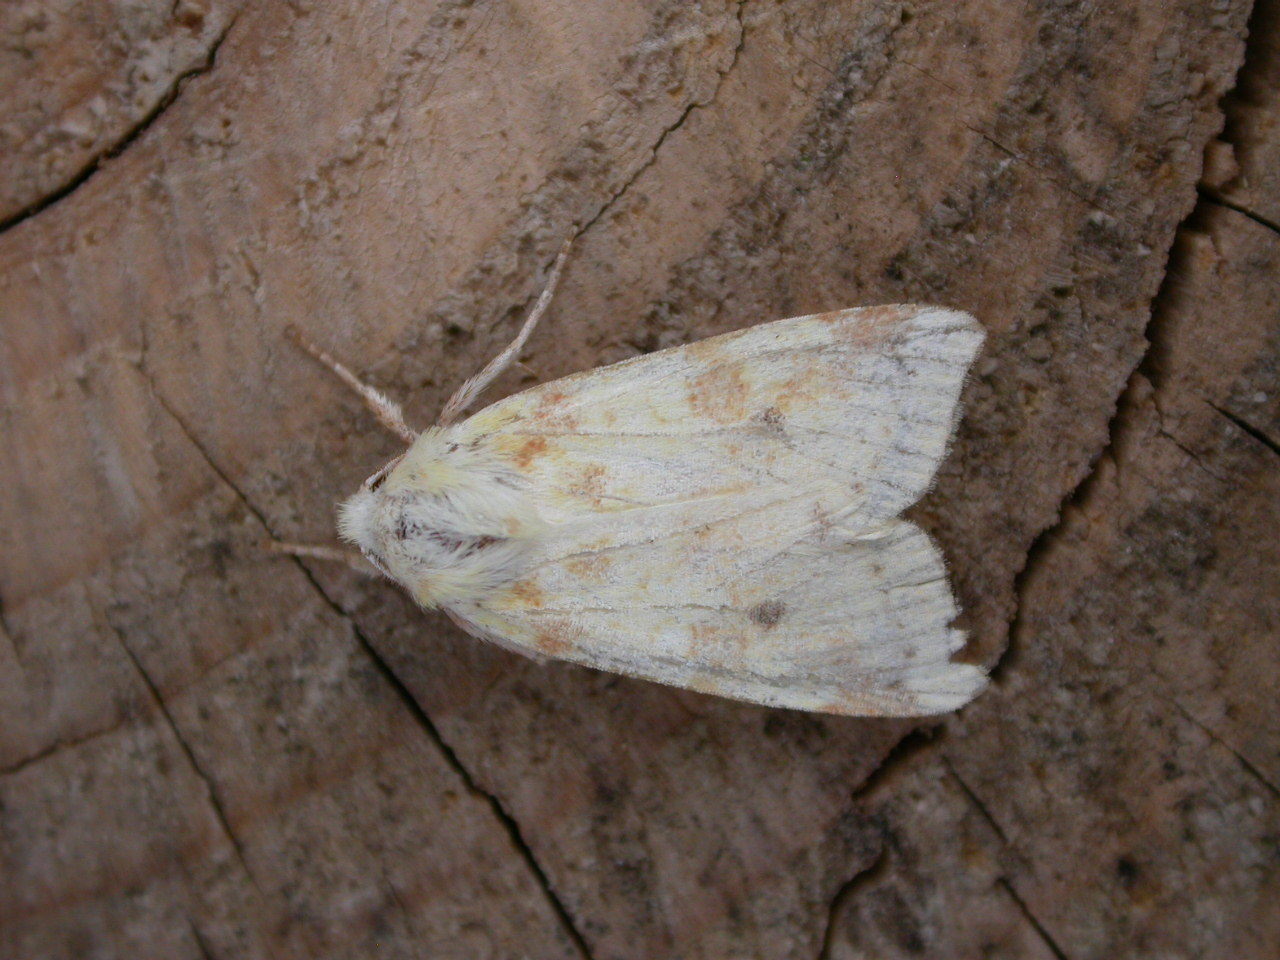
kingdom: Animalia
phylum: Arthropoda
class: Insecta
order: Lepidoptera
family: Noctuidae
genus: Xanthia
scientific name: Xanthia icteritia
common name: The sallow
